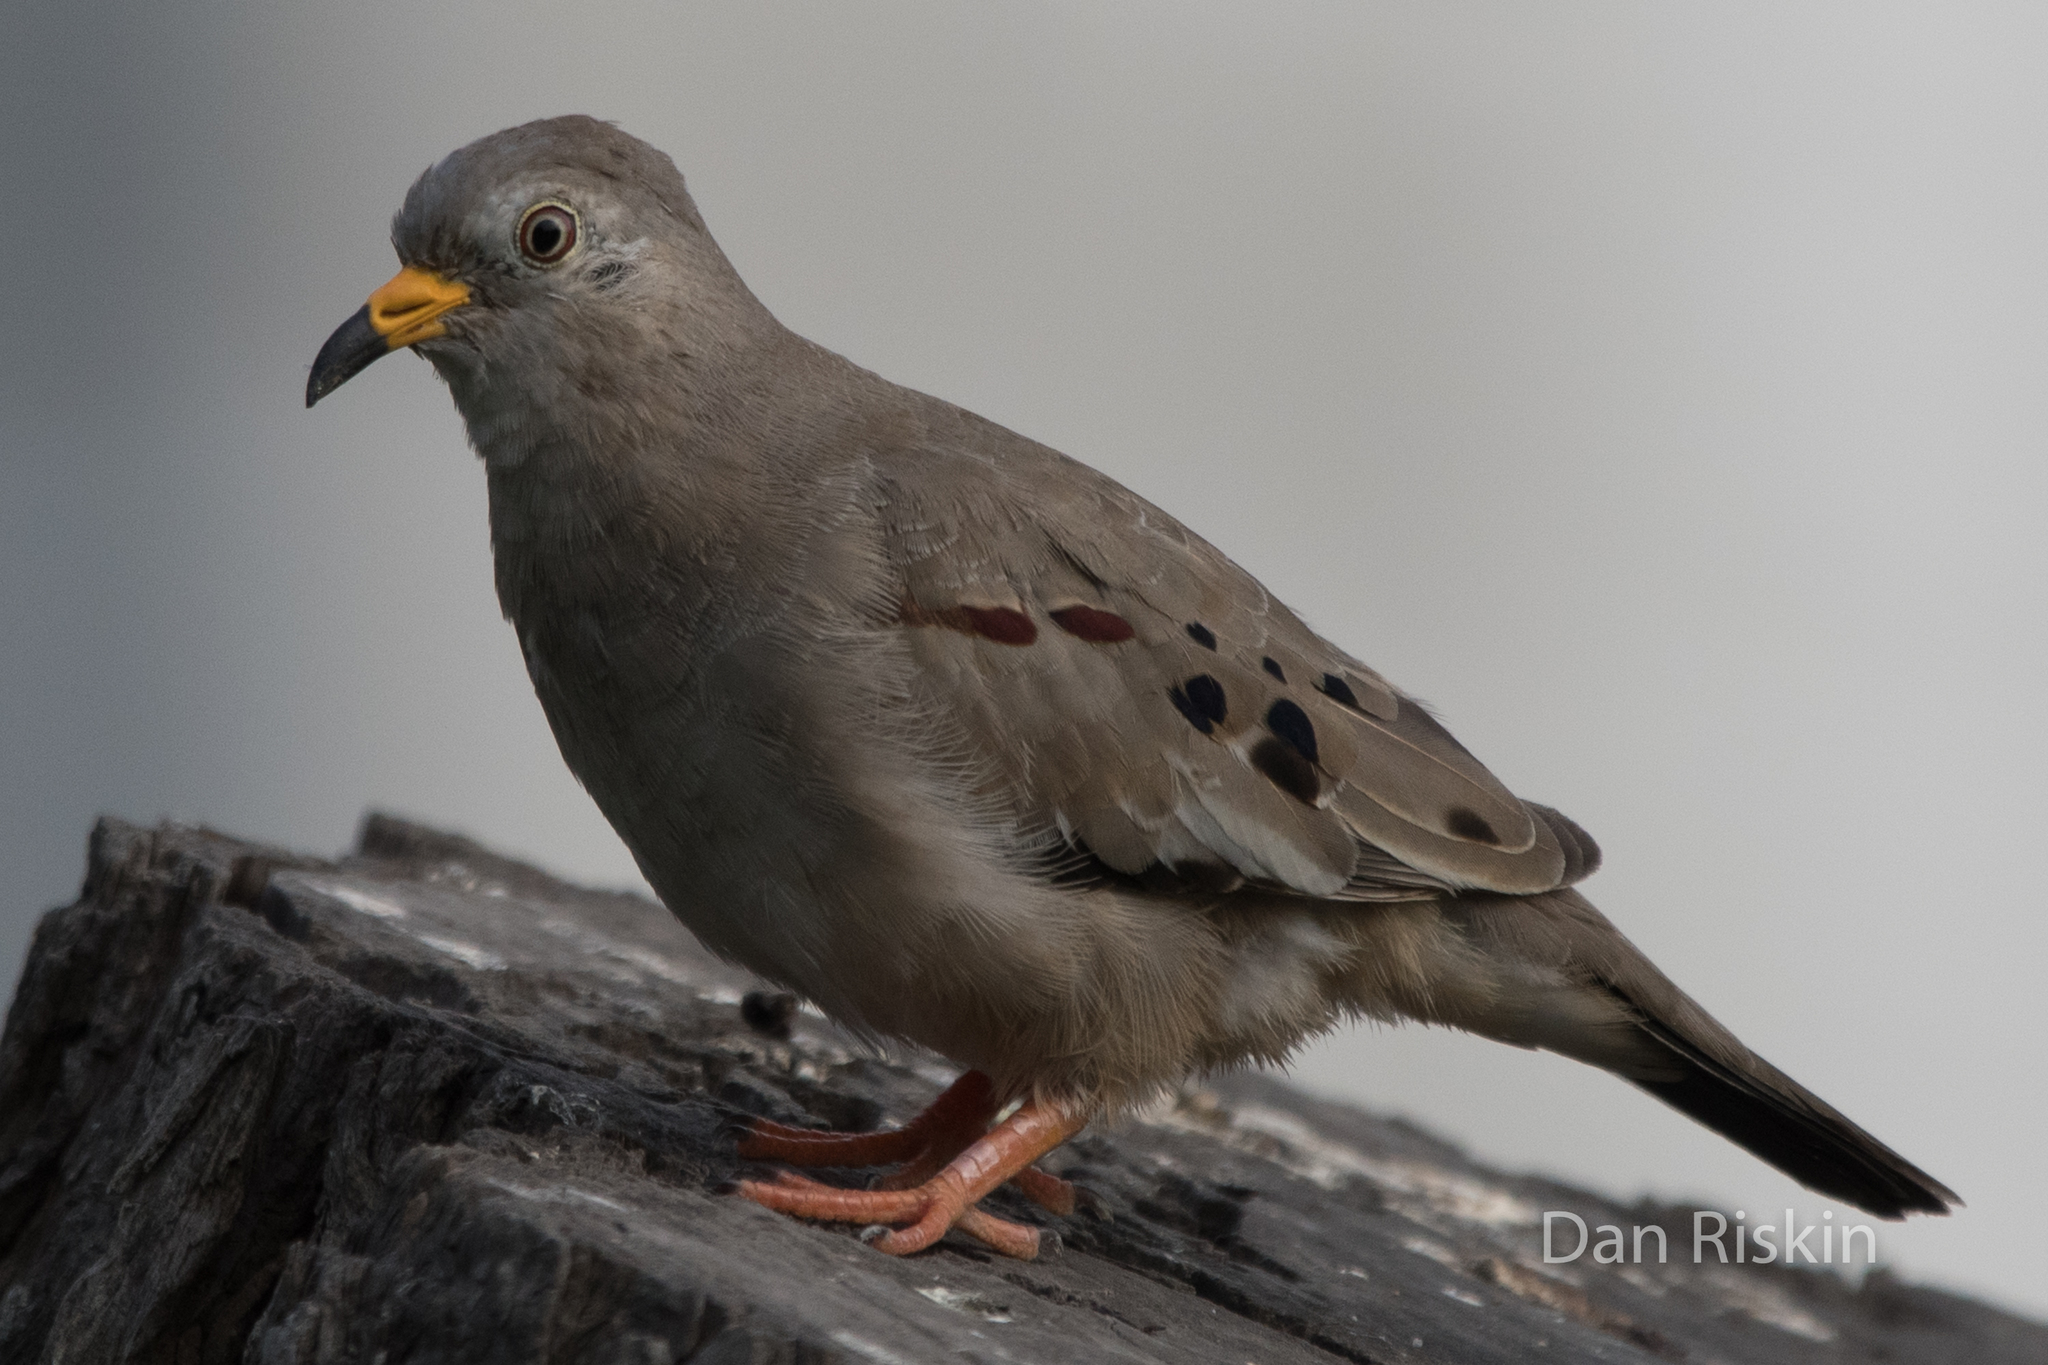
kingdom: Animalia
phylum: Chordata
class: Aves
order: Columbiformes
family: Columbidae
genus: Columbina
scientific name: Columbina cruziana
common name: Croaking ground dove
